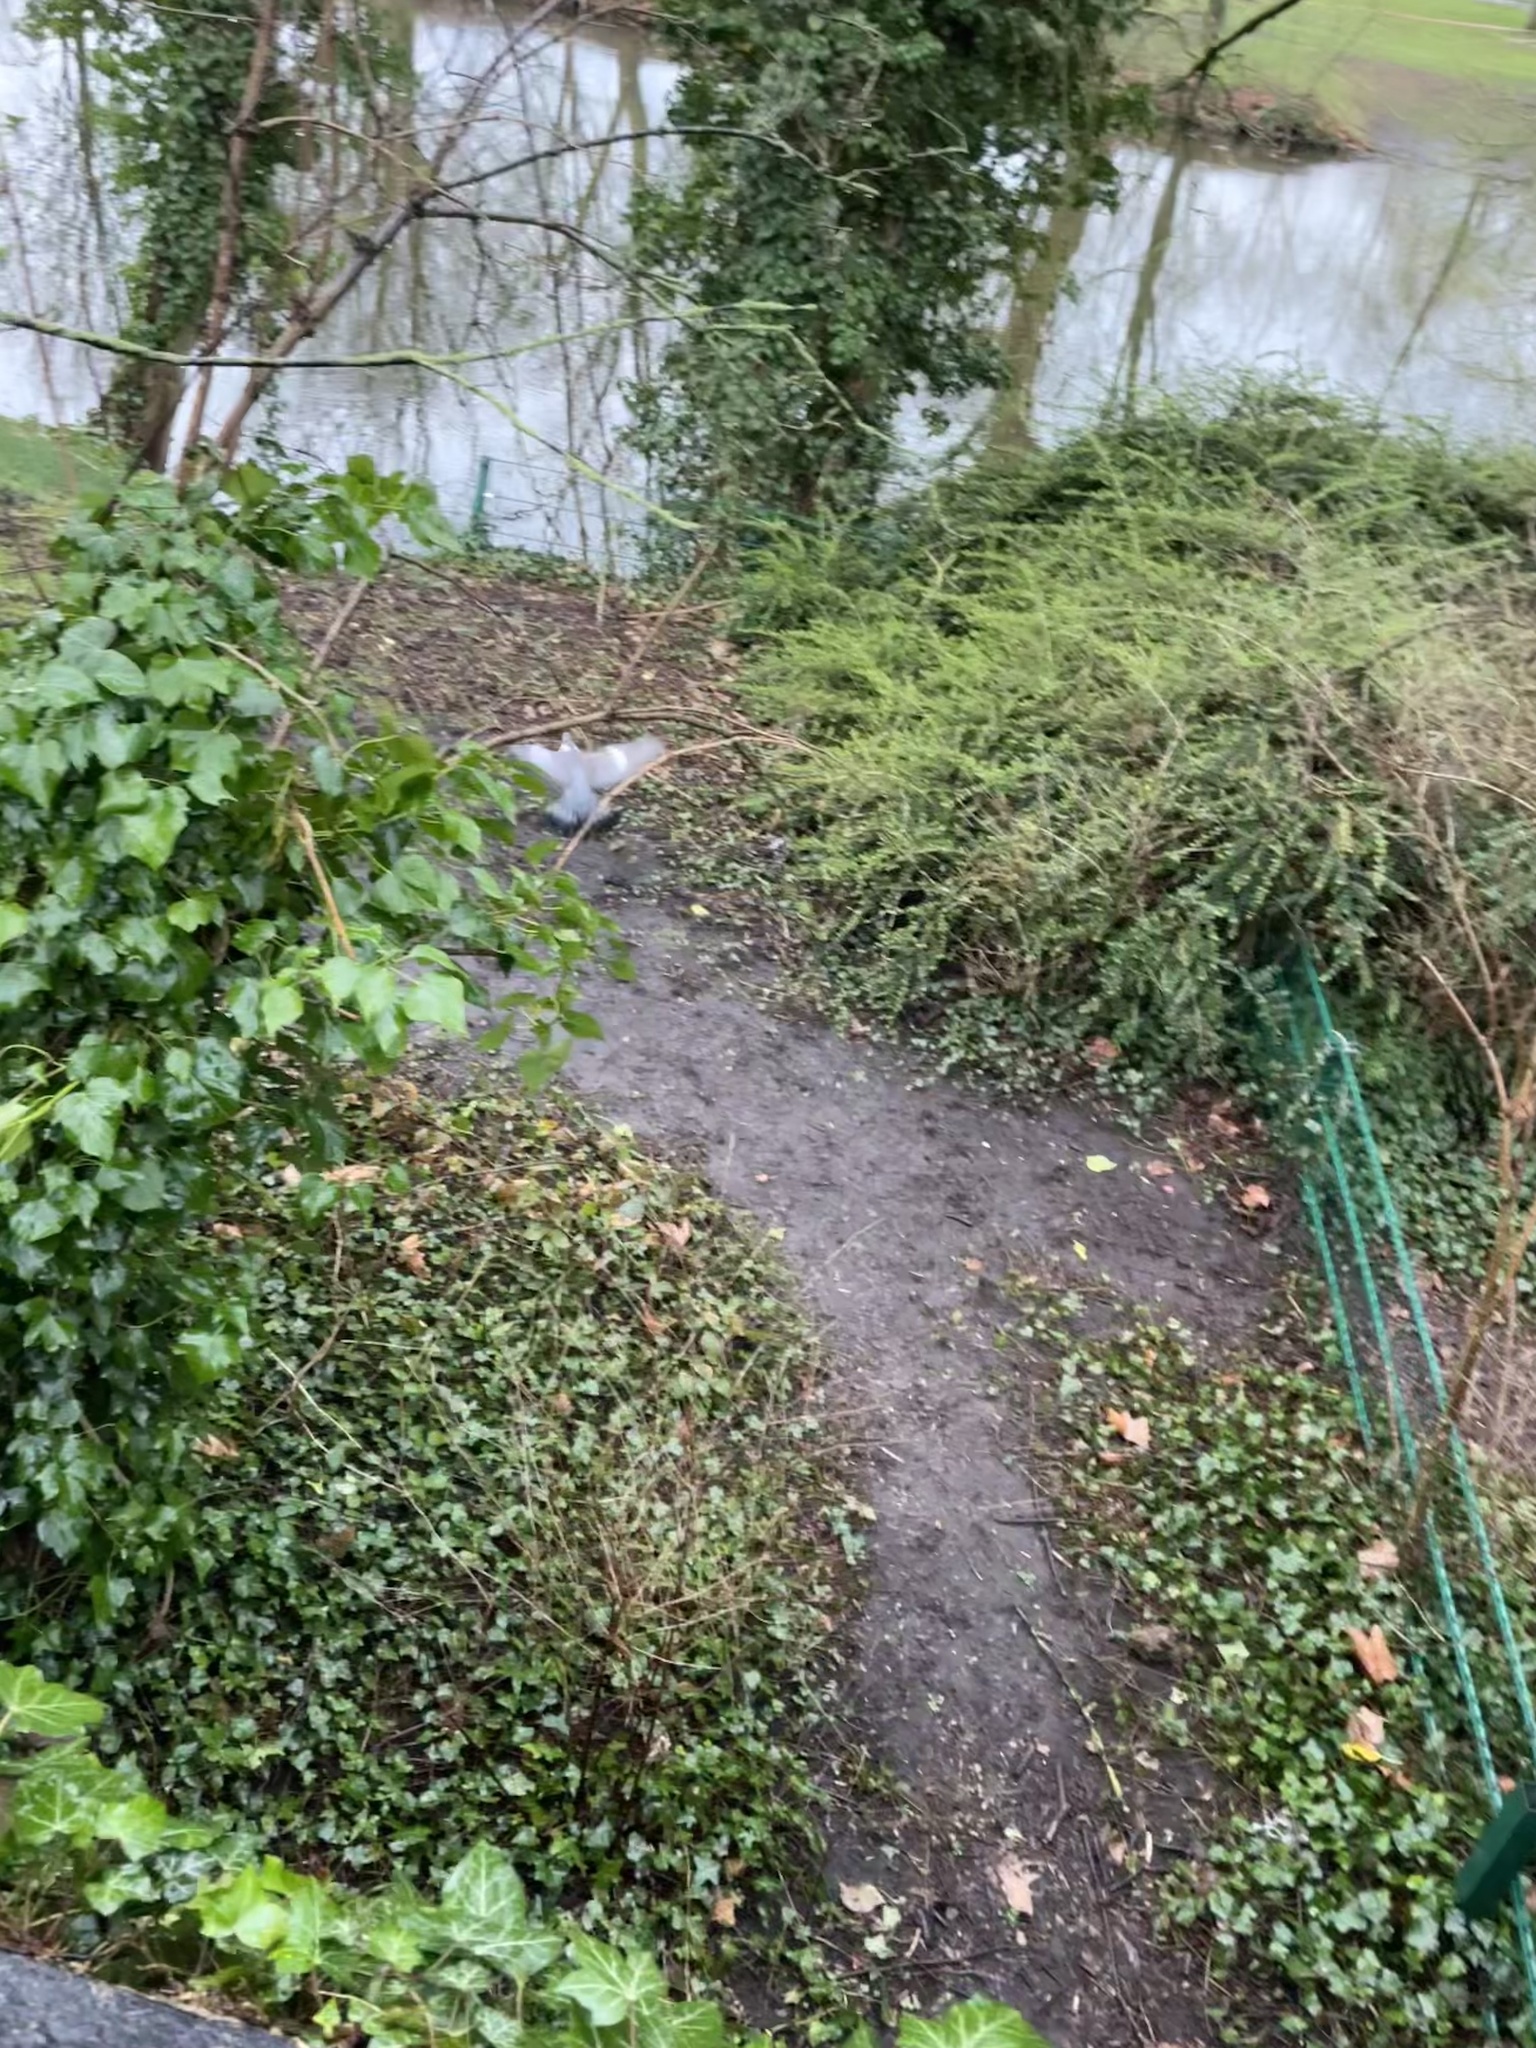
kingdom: Animalia
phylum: Chordata
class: Aves
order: Columbiformes
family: Columbidae
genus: Columba
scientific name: Columba palumbus
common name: Common wood pigeon
